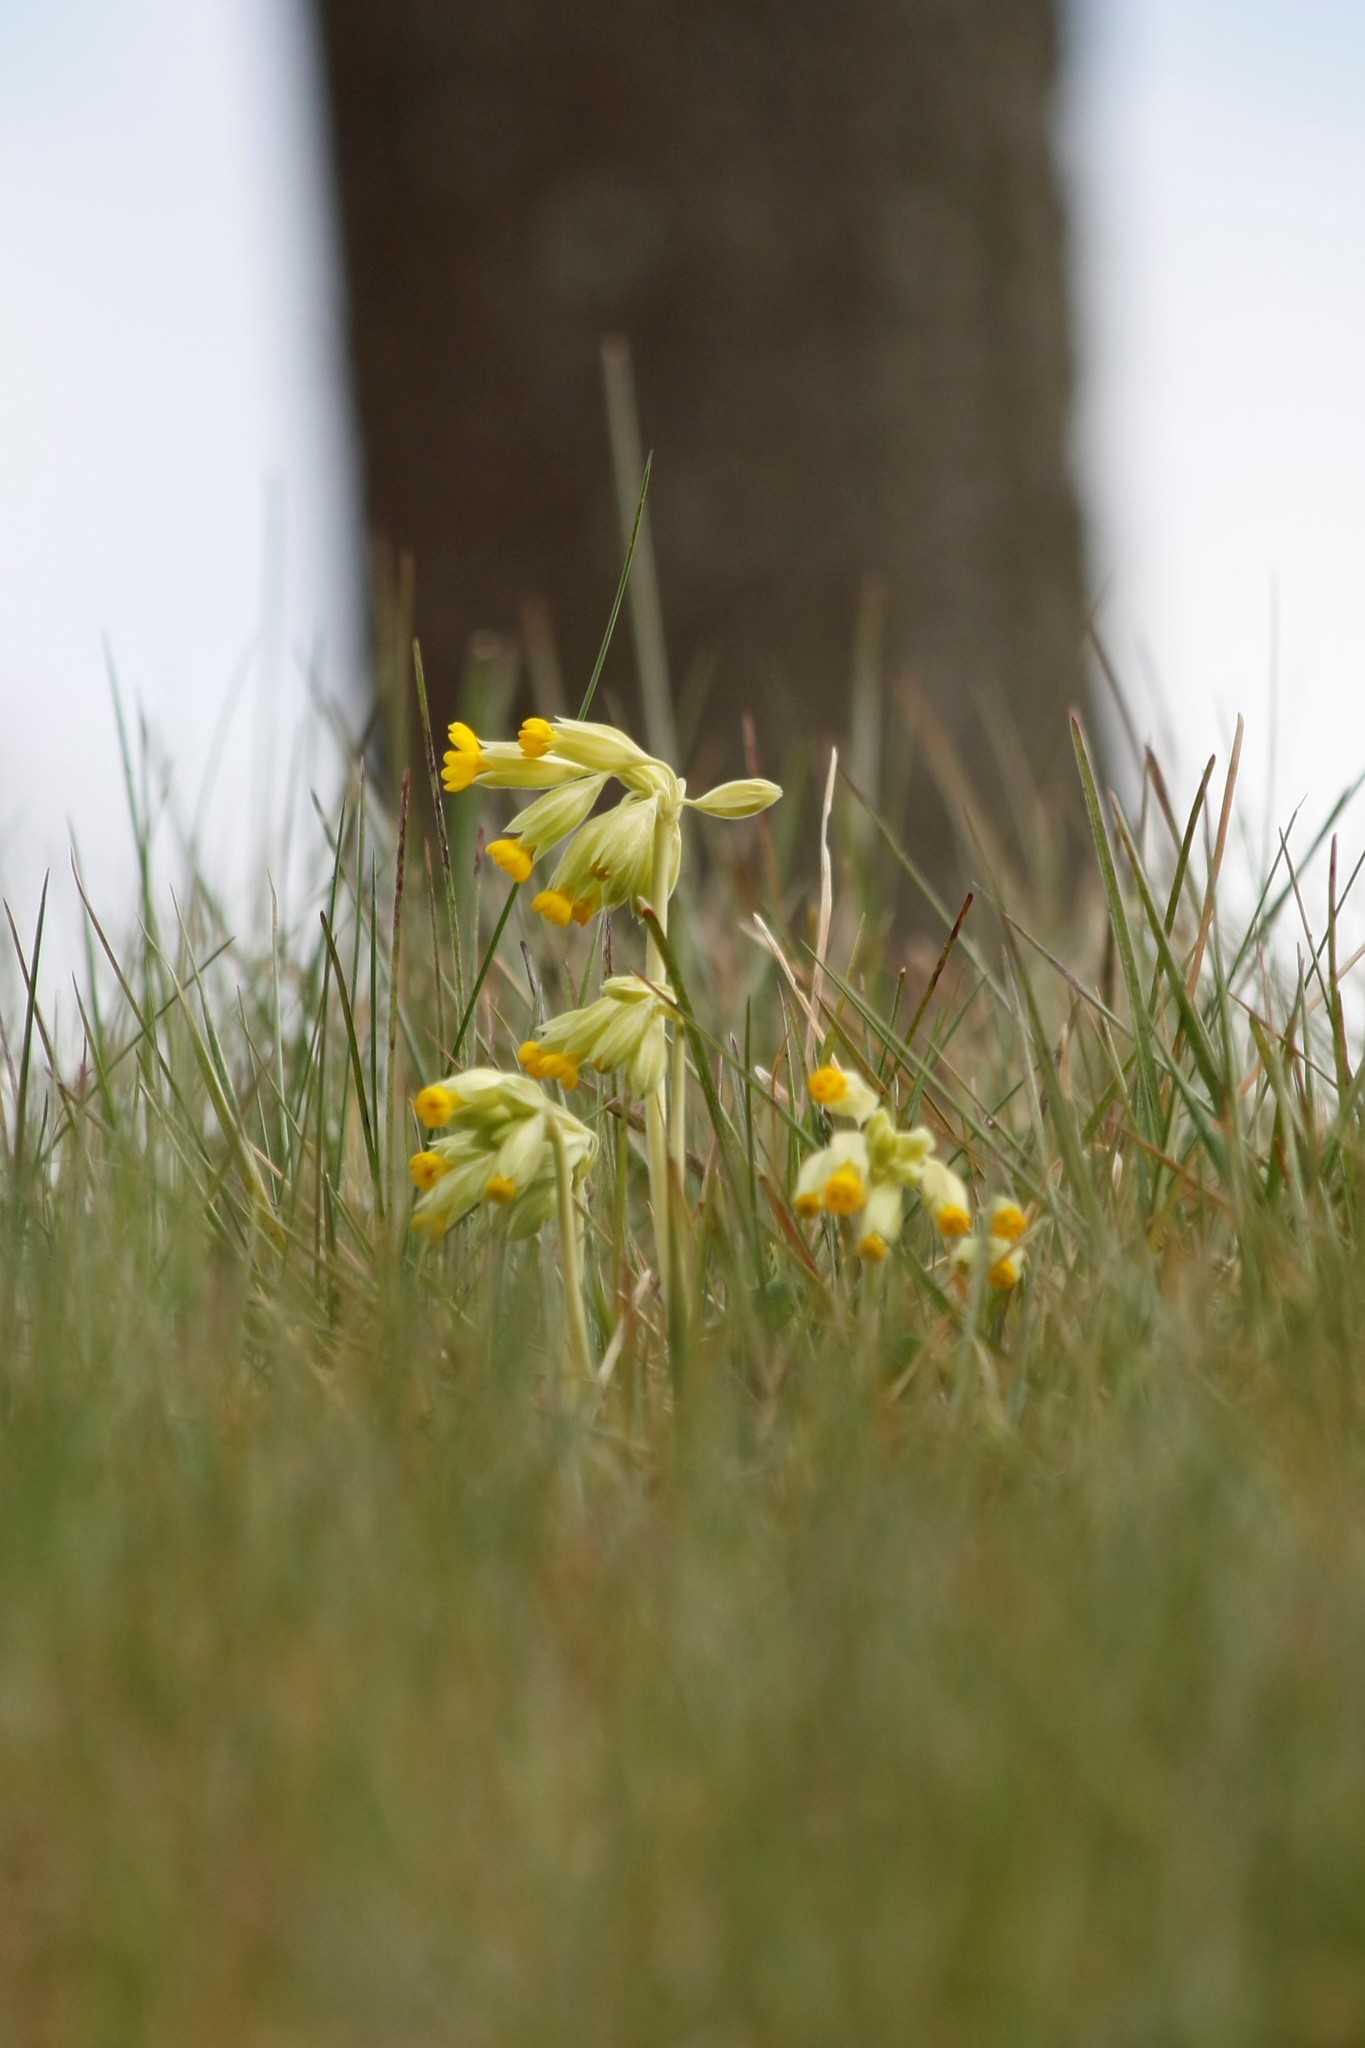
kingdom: Plantae
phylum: Tracheophyta
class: Magnoliopsida
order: Ericales
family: Primulaceae
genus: Primula
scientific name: Primula veris
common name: Cowslip
